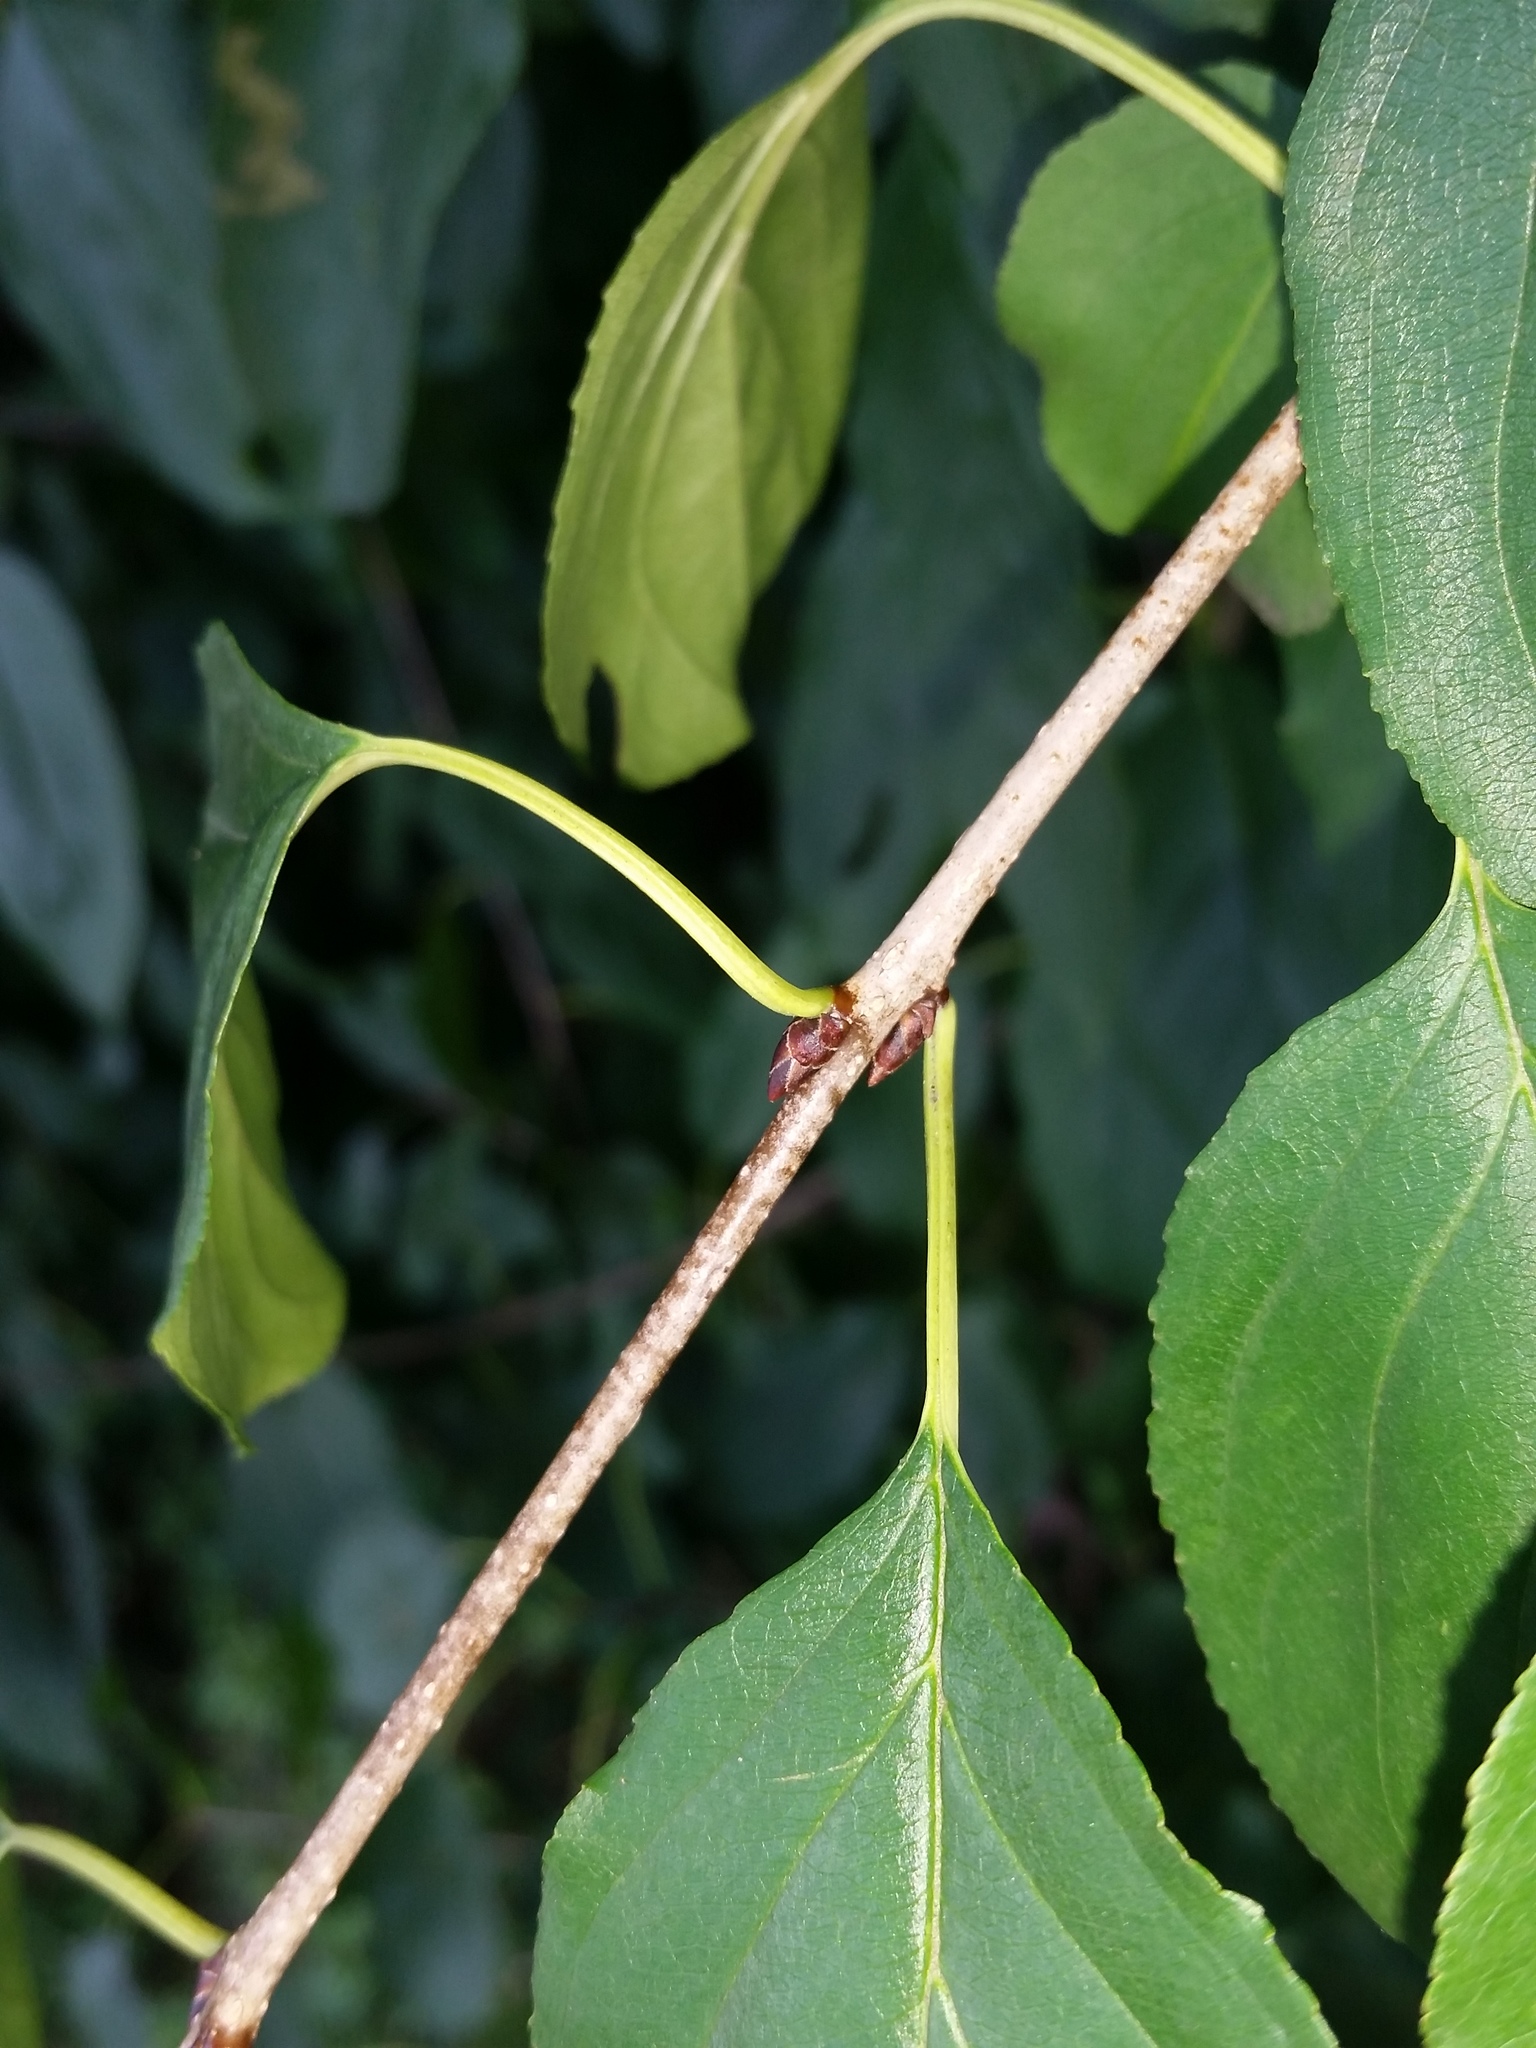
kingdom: Plantae
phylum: Tracheophyta
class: Magnoliopsida
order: Rosales
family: Rhamnaceae
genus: Rhamnus
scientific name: Rhamnus cathartica
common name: Common buckthorn
